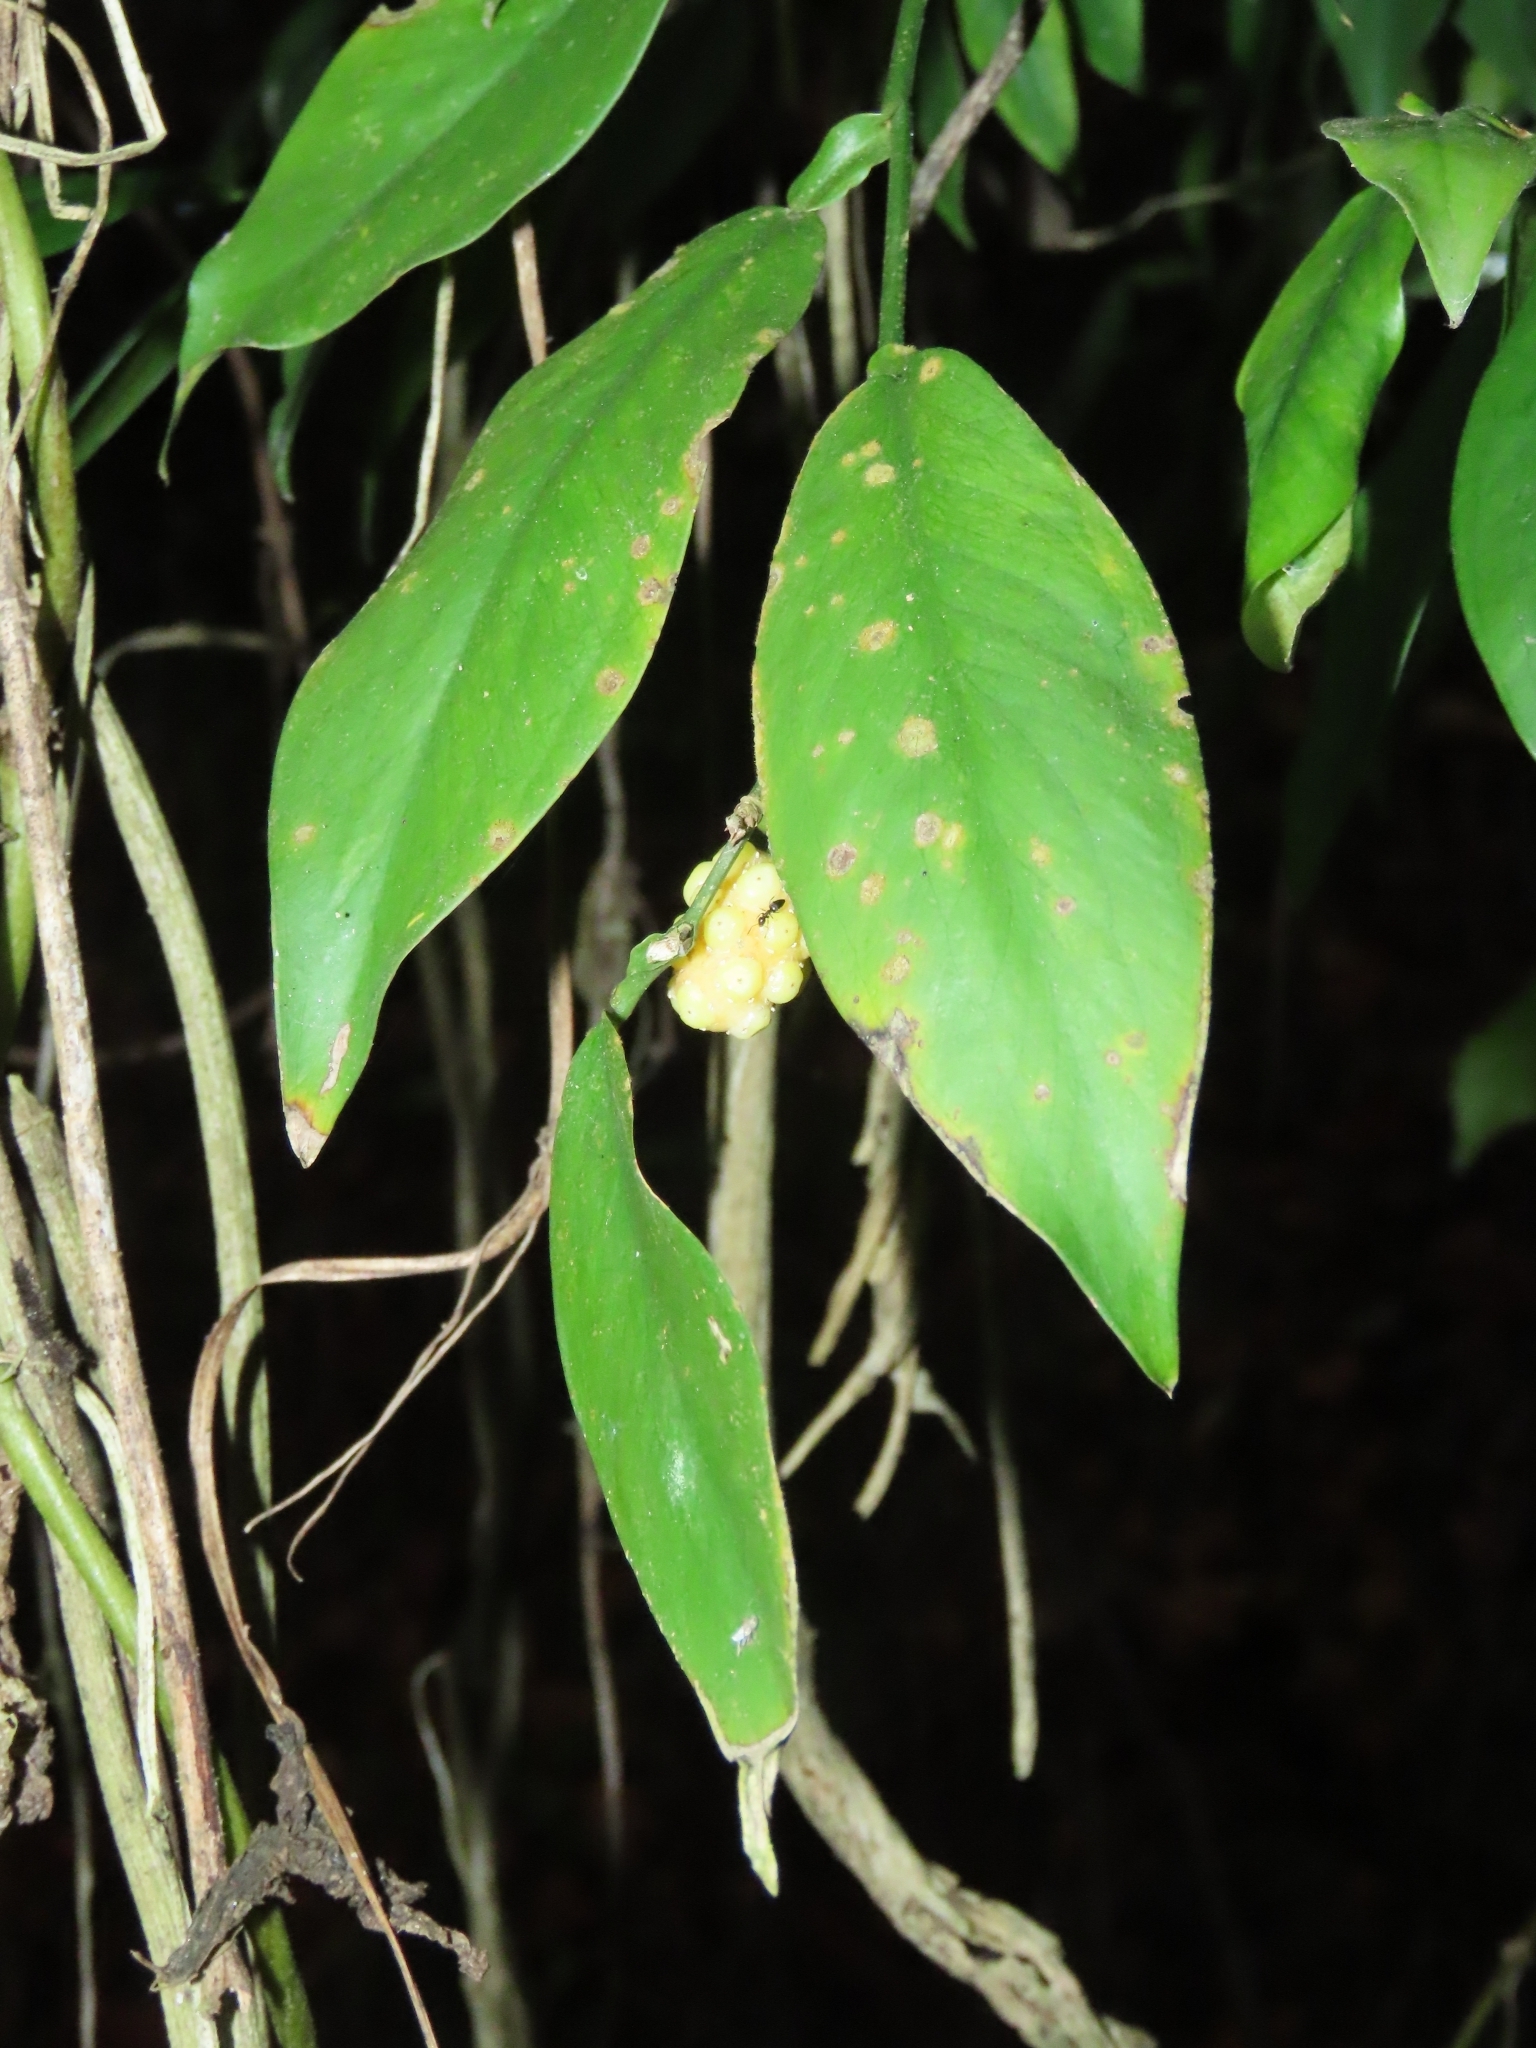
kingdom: Plantae
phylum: Tracheophyta
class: Liliopsida
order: Alismatales
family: Araceae
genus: Pothos
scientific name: Pothos chinensis
